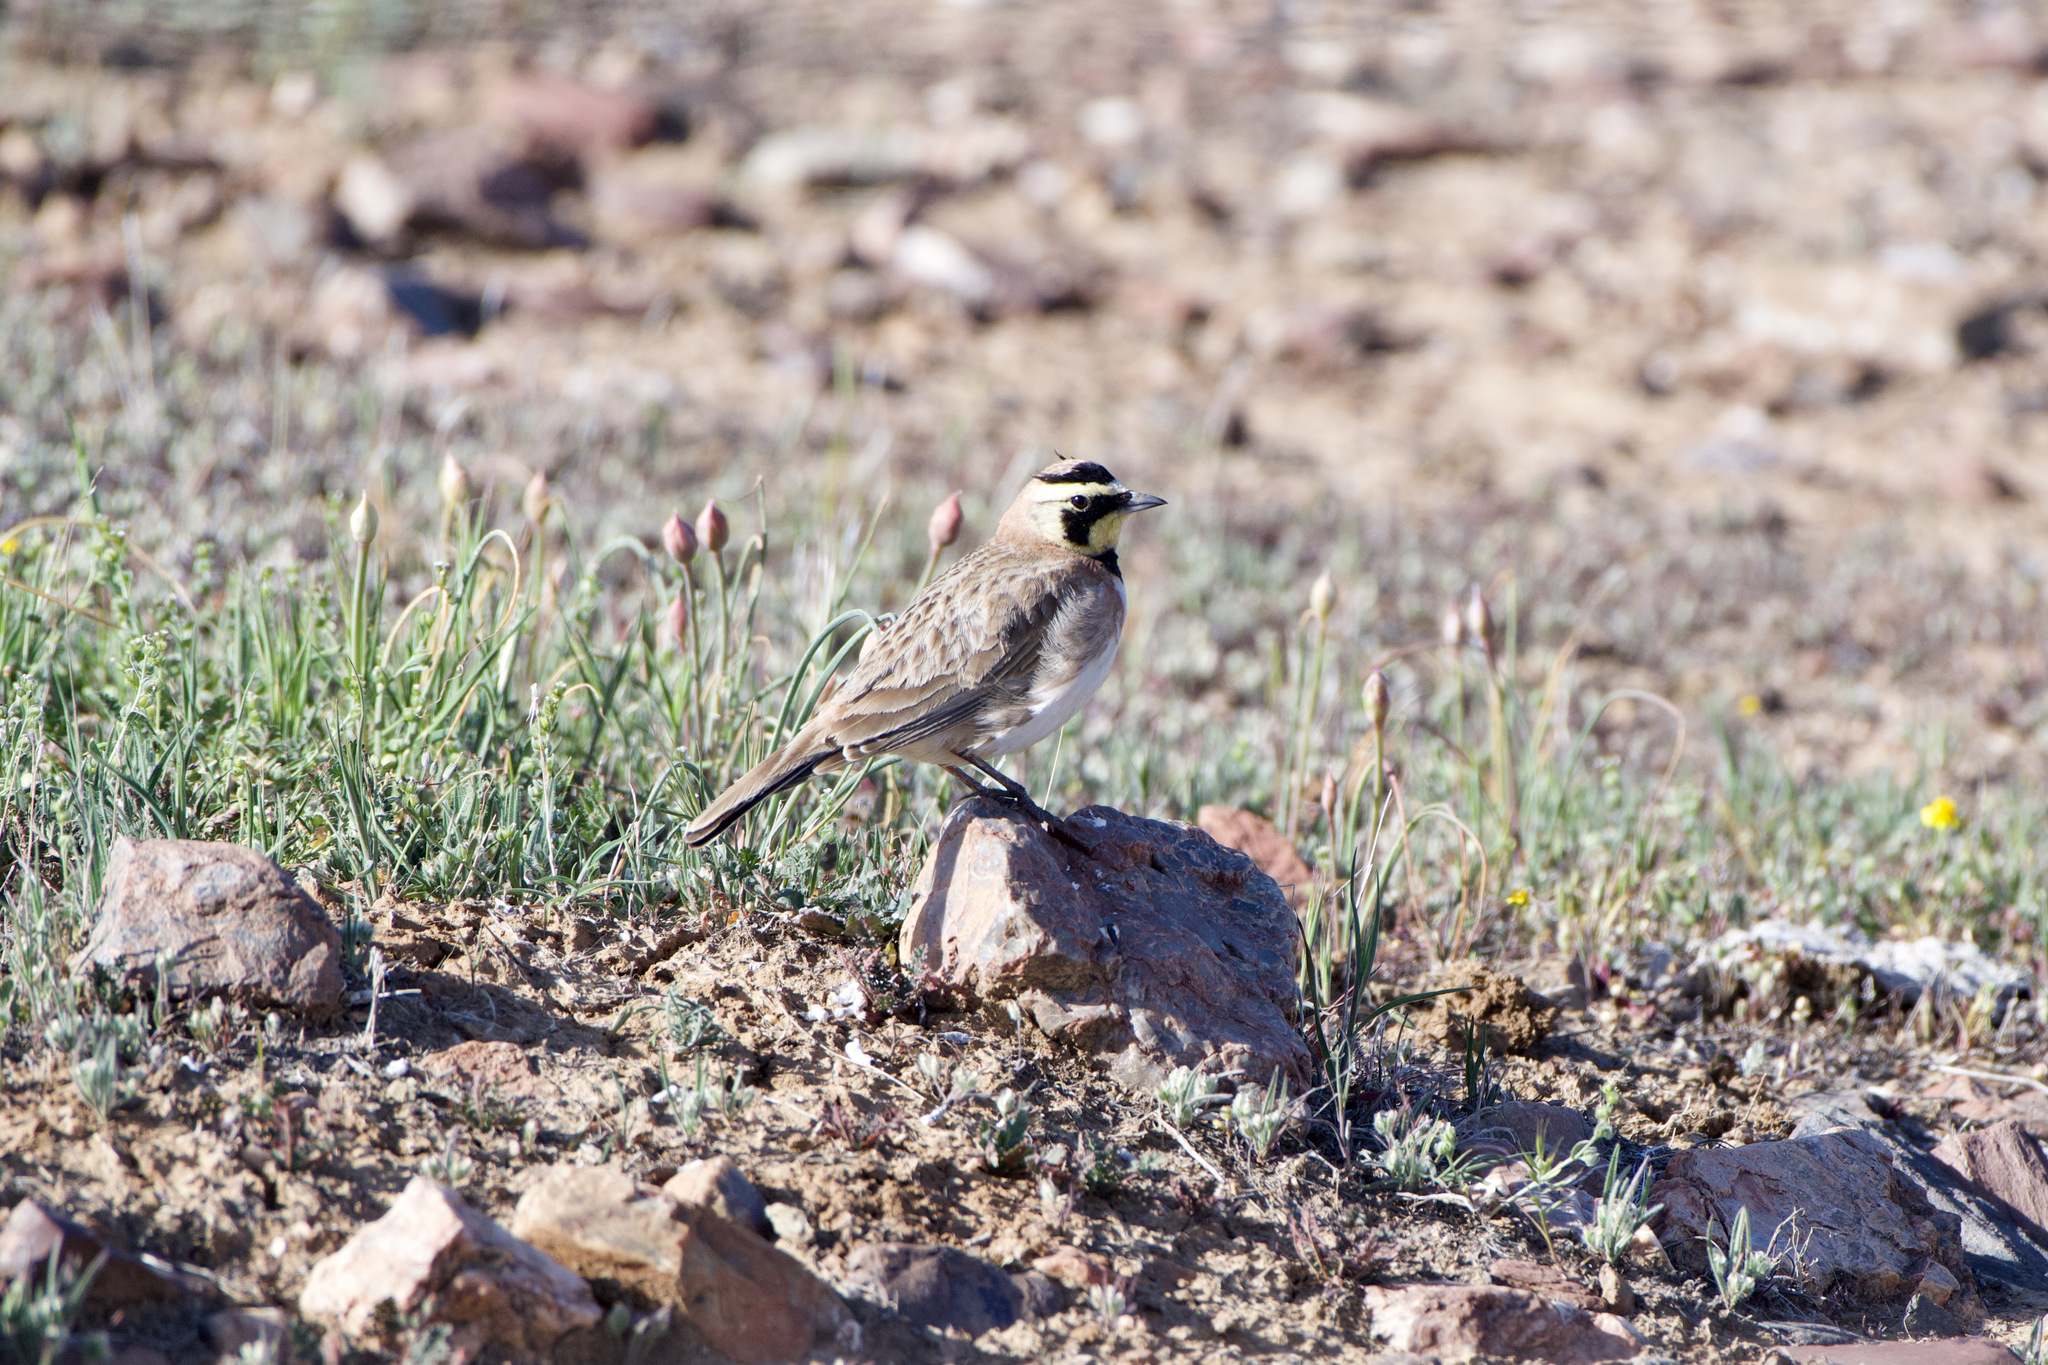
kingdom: Animalia
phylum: Chordata
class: Aves
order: Passeriformes
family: Alaudidae
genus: Eremophila
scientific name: Eremophila alpestris
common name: Horned lark
